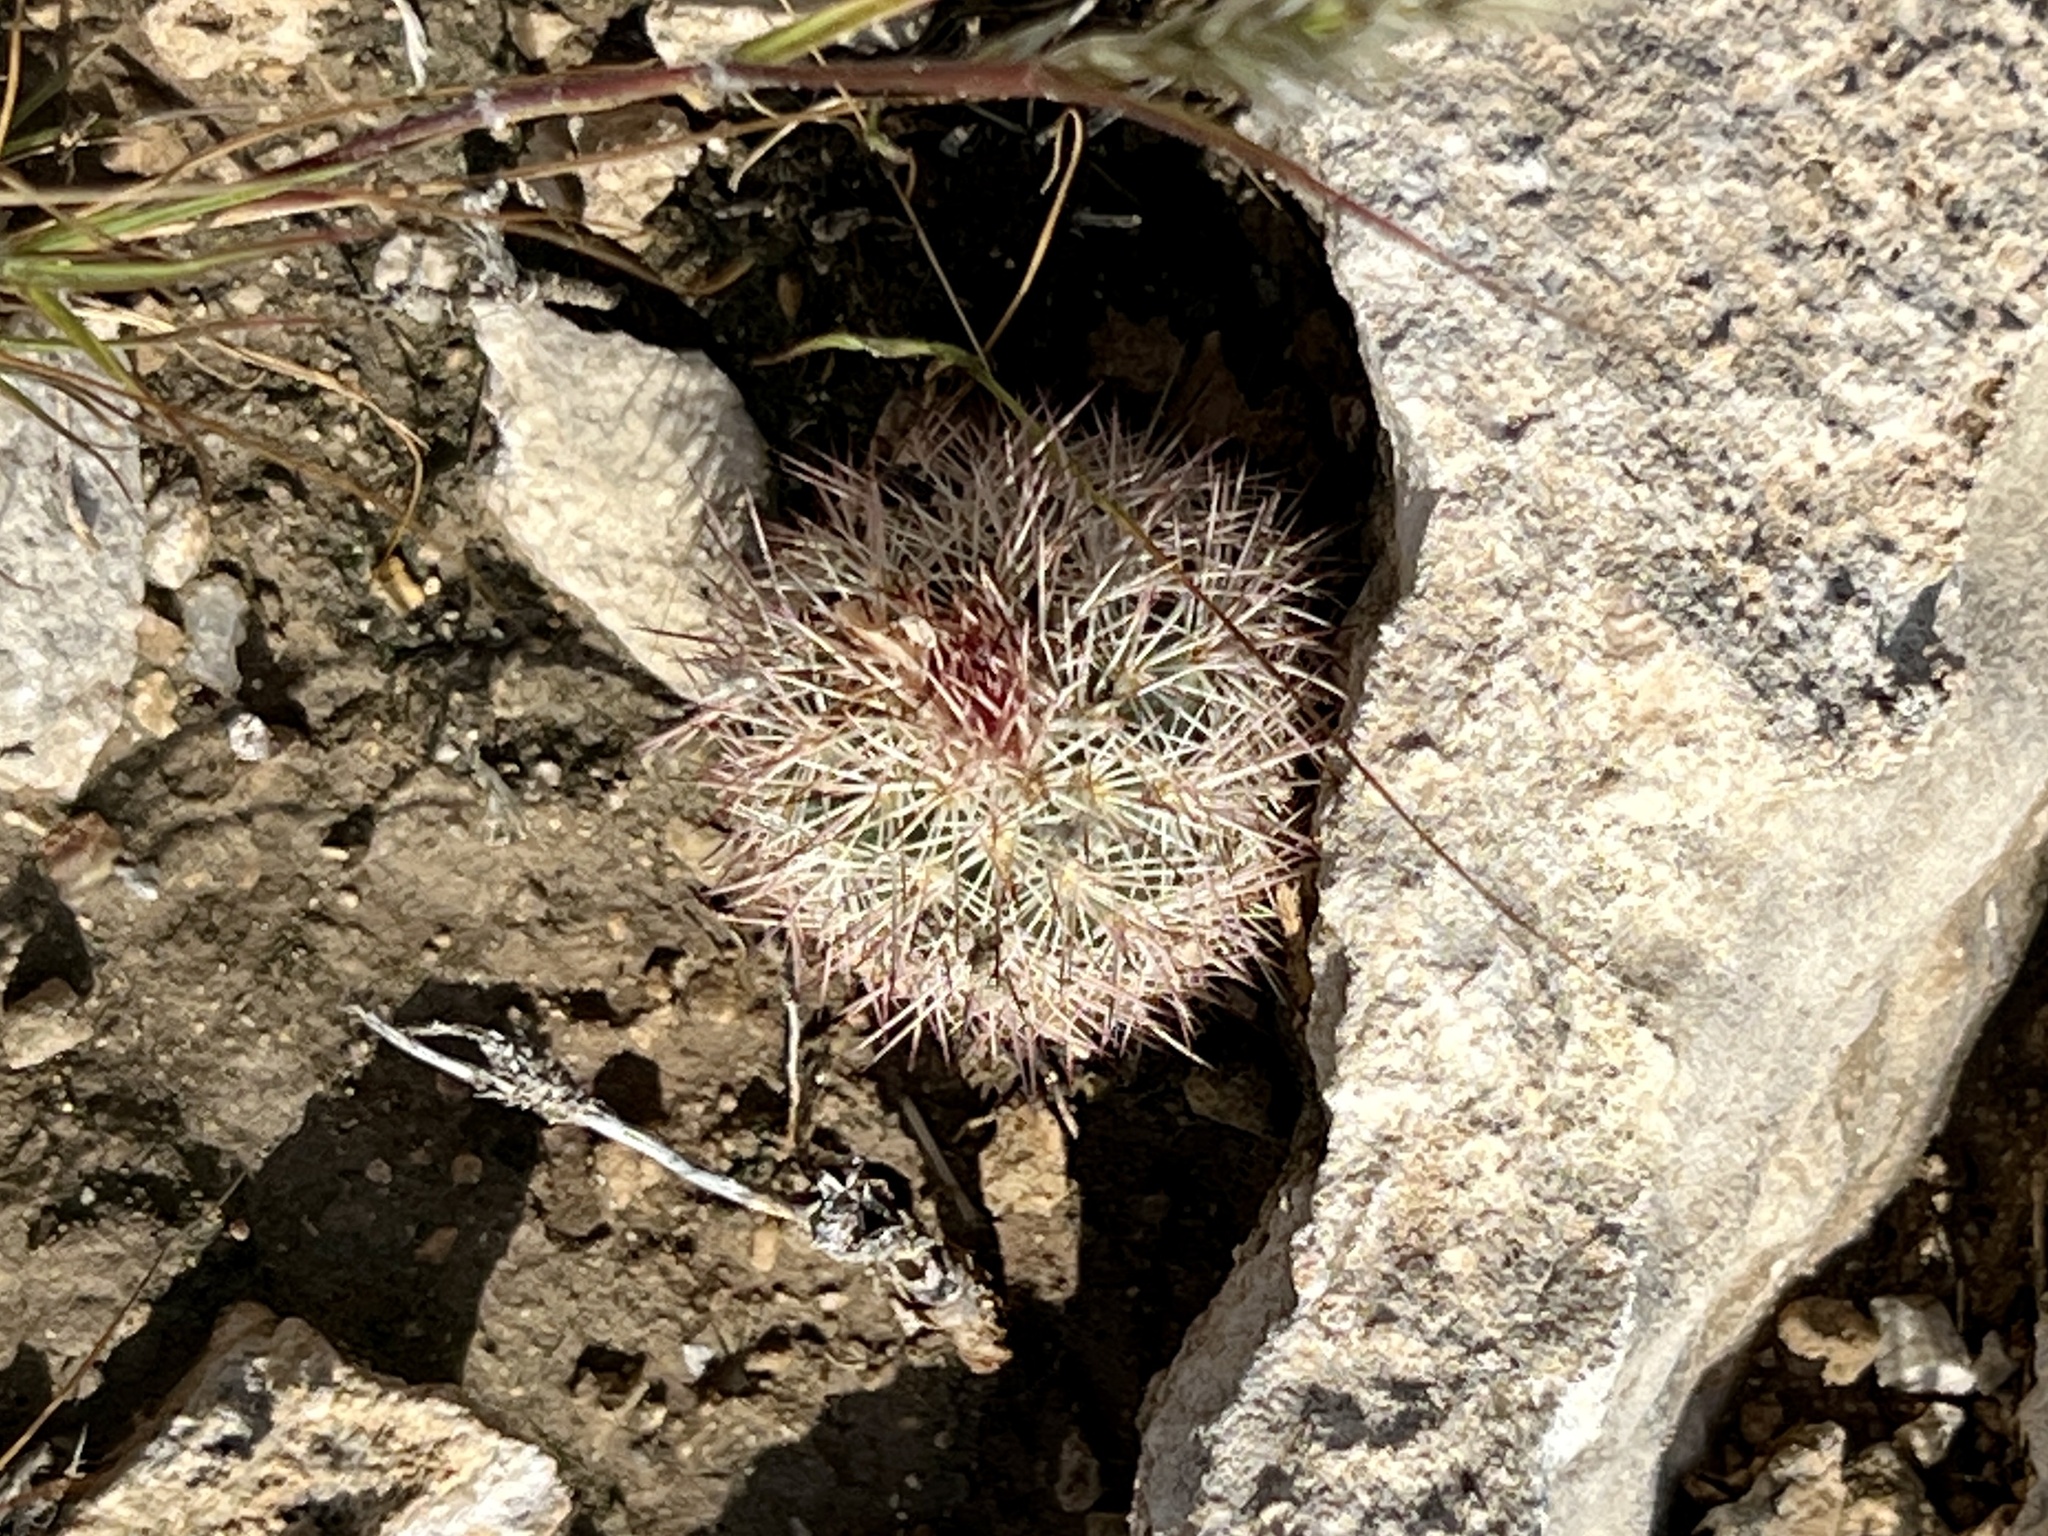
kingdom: Plantae
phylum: Tracheophyta
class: Magnoliopsida
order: Caryophyllales
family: Cactaceae
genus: Echinocereus
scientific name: Echinocereus dasyacanthus
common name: Spiny hedgehog cactus
